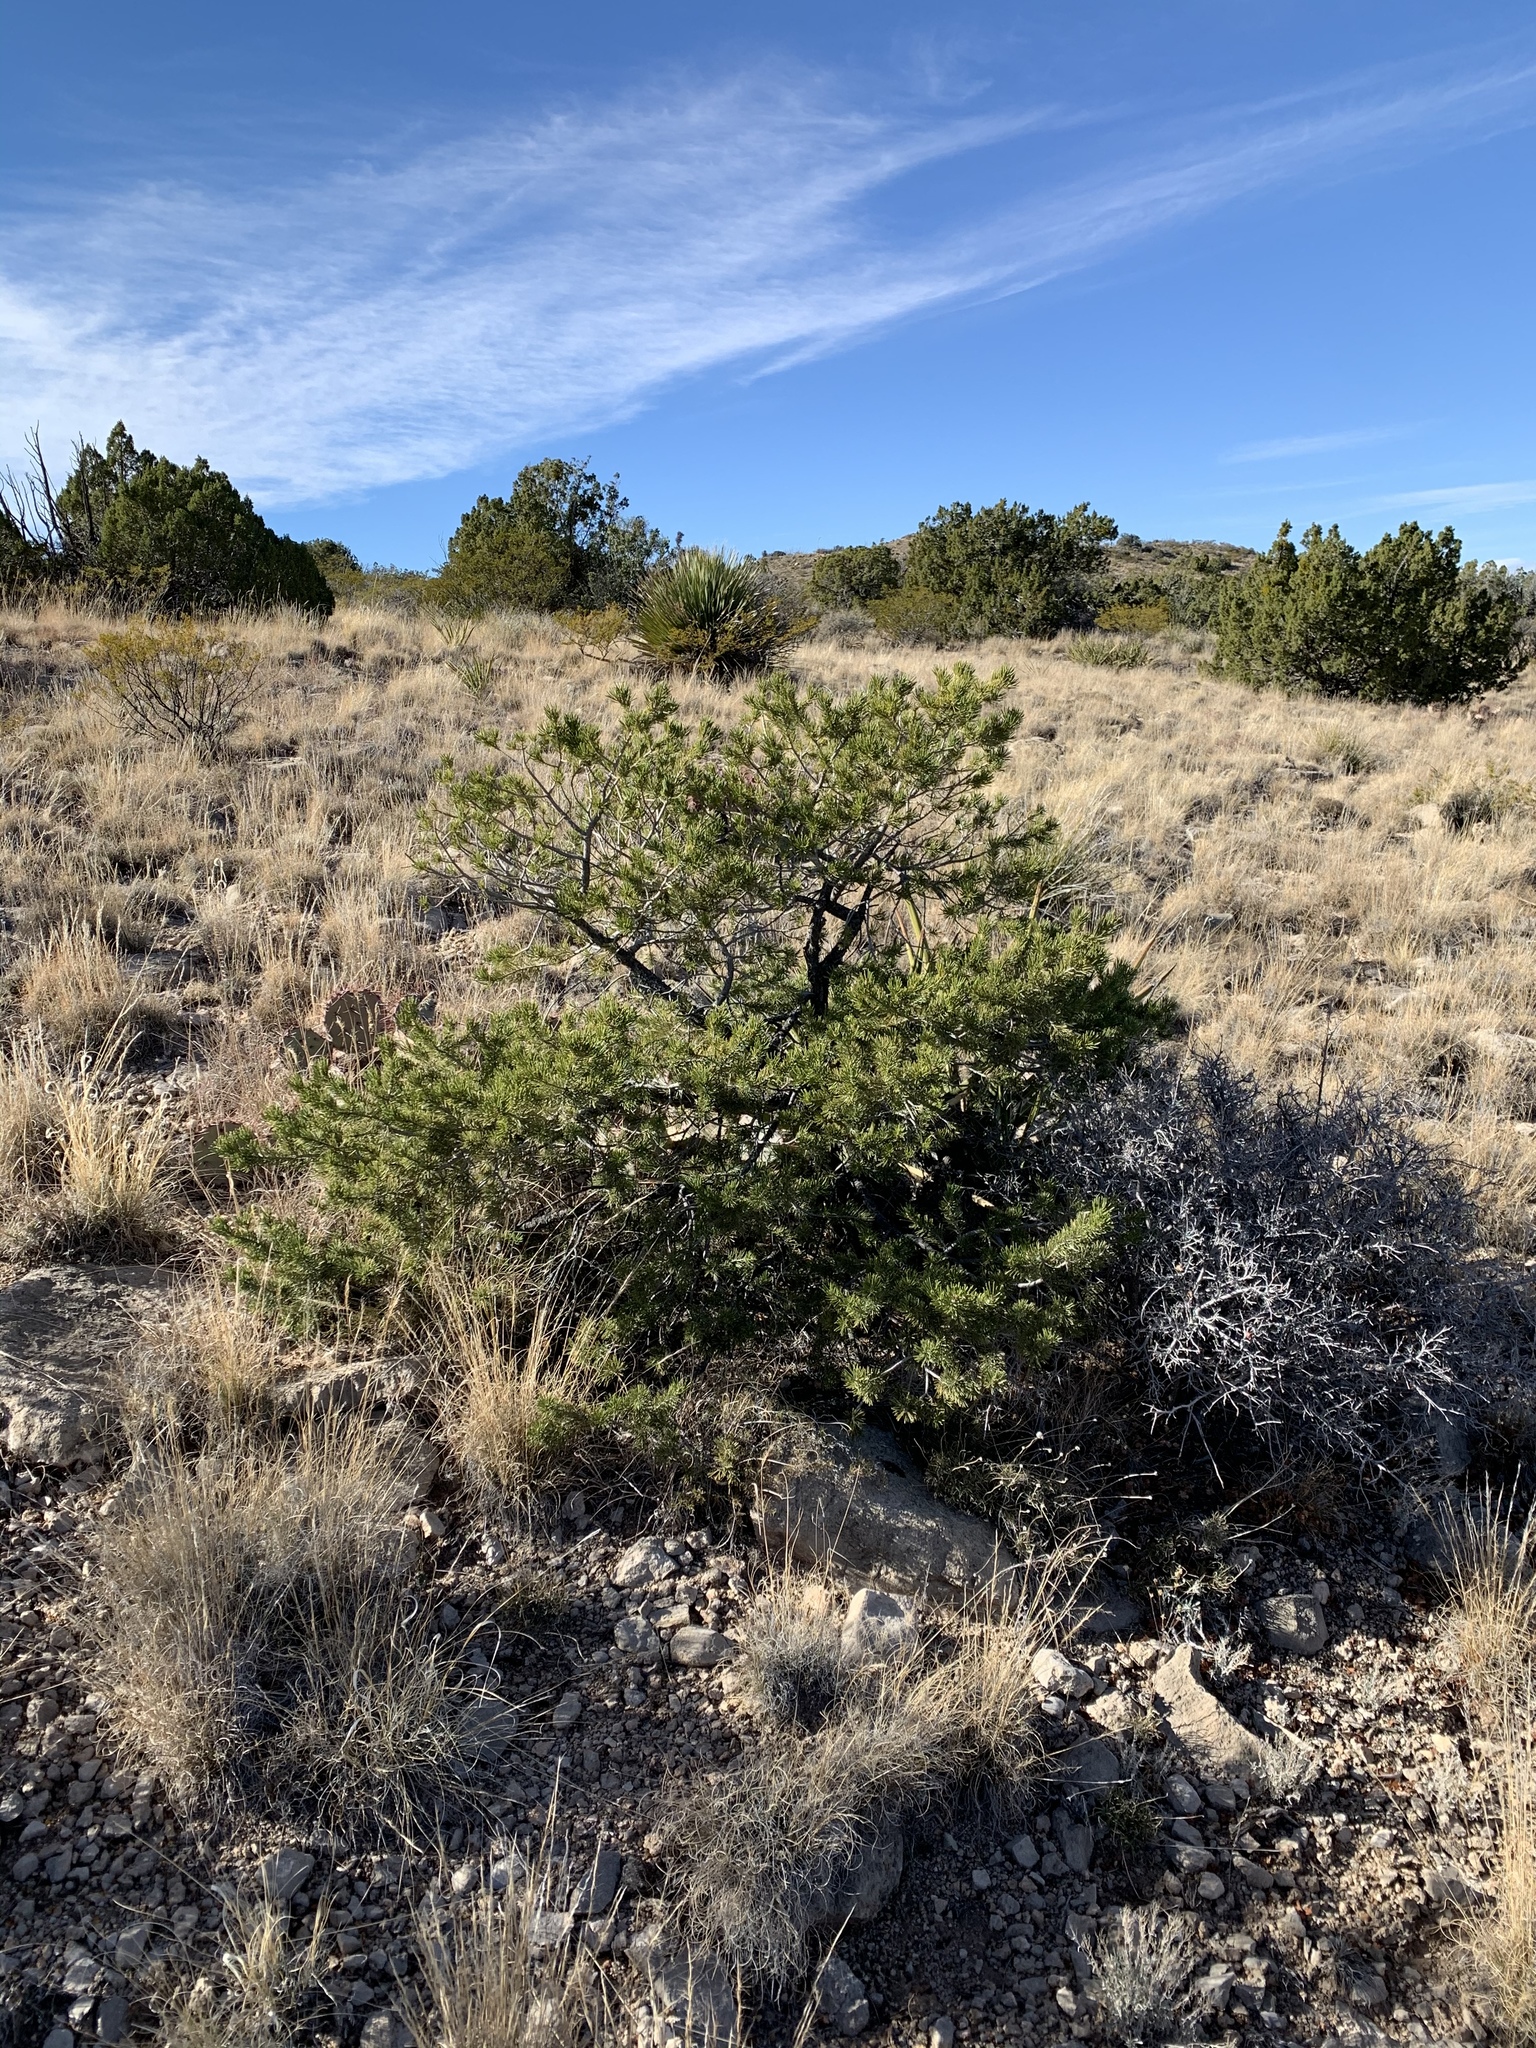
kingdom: Plantae
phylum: Tracheophyta
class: Pinopsida
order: Pinales
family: Pinaceae
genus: Pinus
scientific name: Pinus edulis
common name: Colorado pinyon
